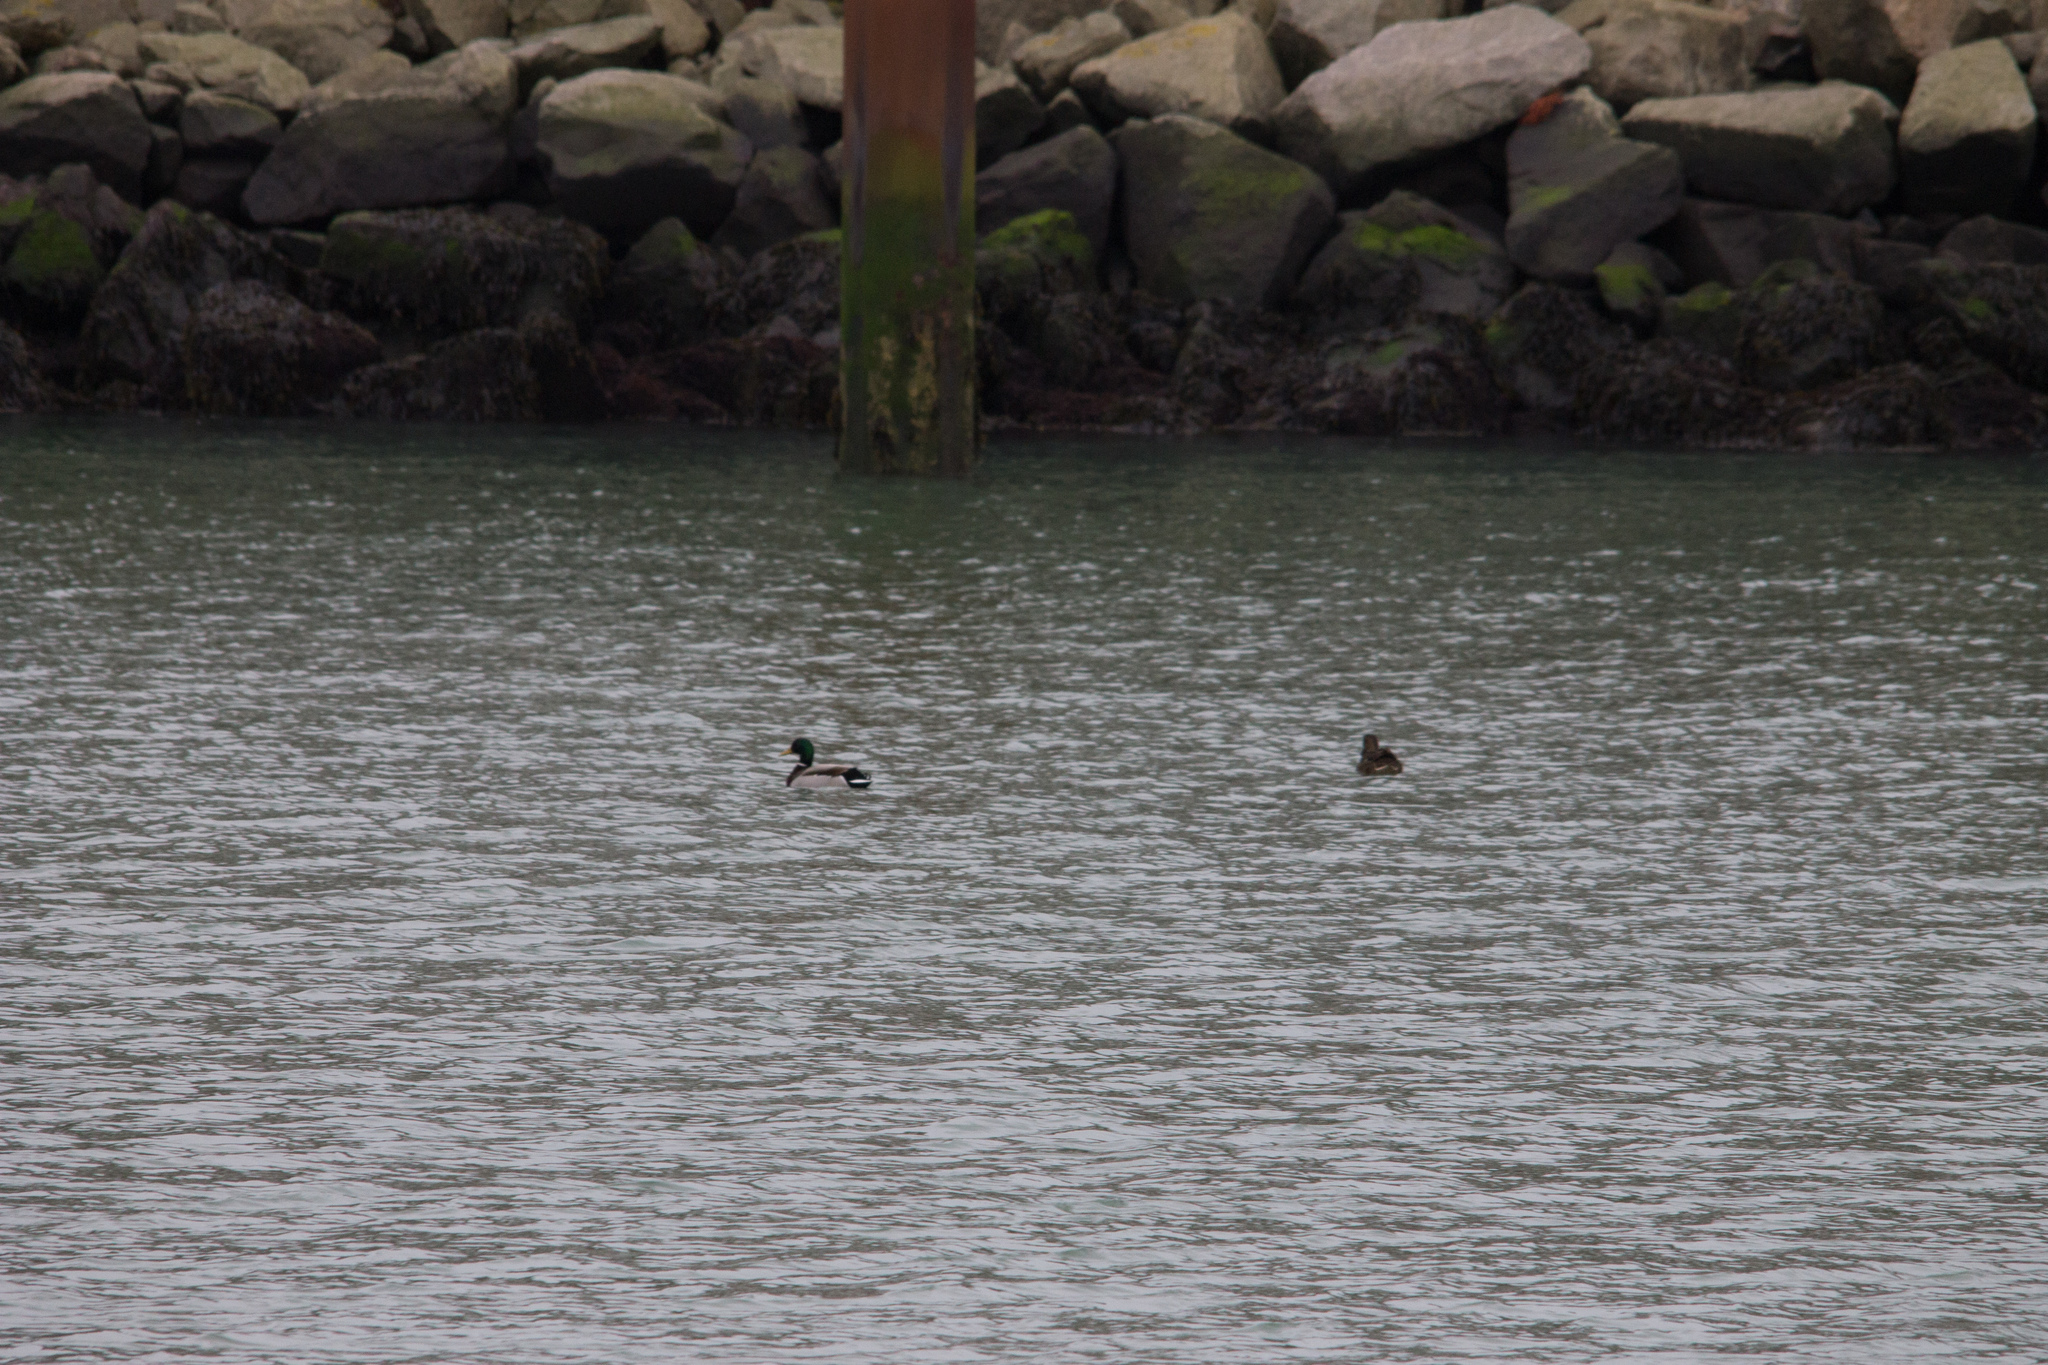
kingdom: Animalia
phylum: Chordata
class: Aves
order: Anseriformes
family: Anatidae
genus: Anas
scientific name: Anas platyrhynchos
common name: Mallard
